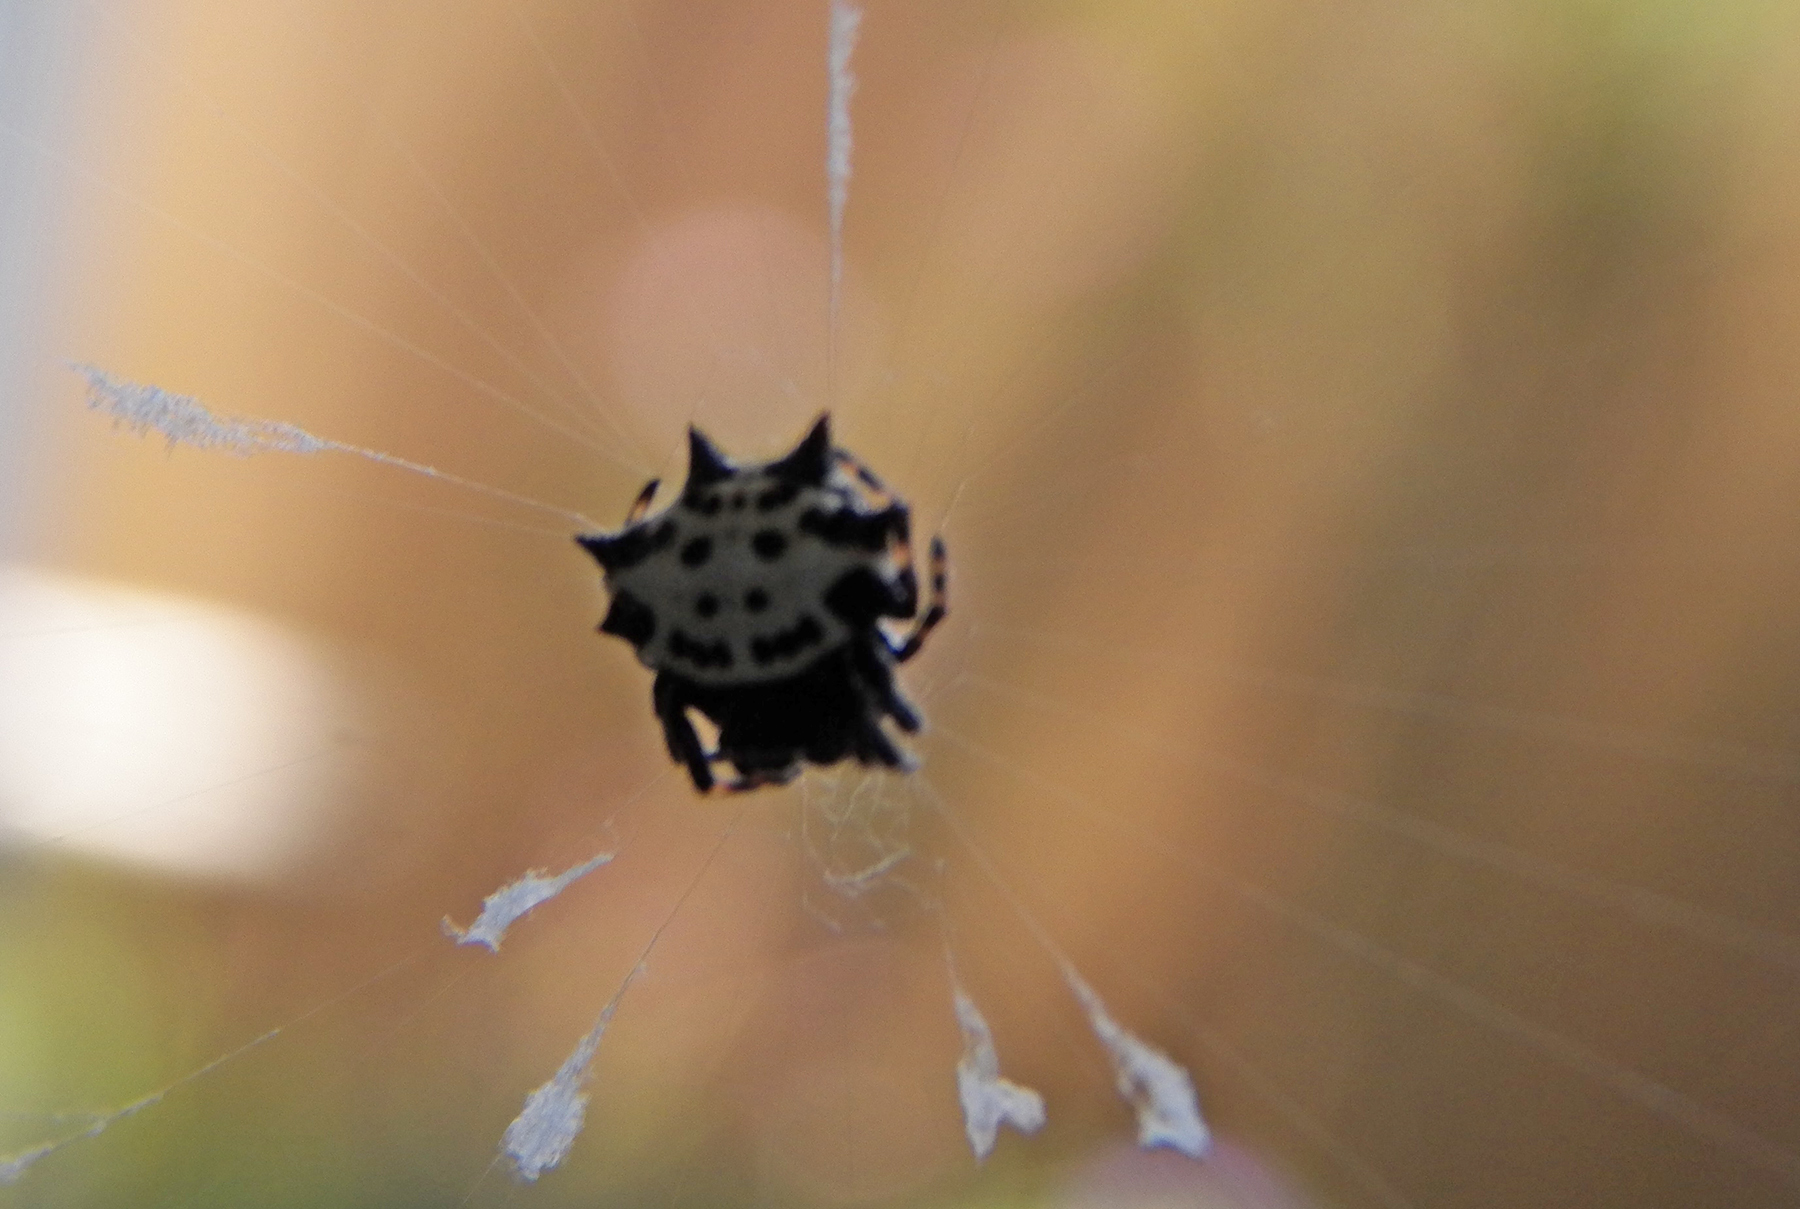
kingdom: Animalia
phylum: Arthropoda
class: Arachnida
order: Araneae
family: Araneidae
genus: Gasteracantha
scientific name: Gasteracantha cancriformis
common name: Orb weavers
